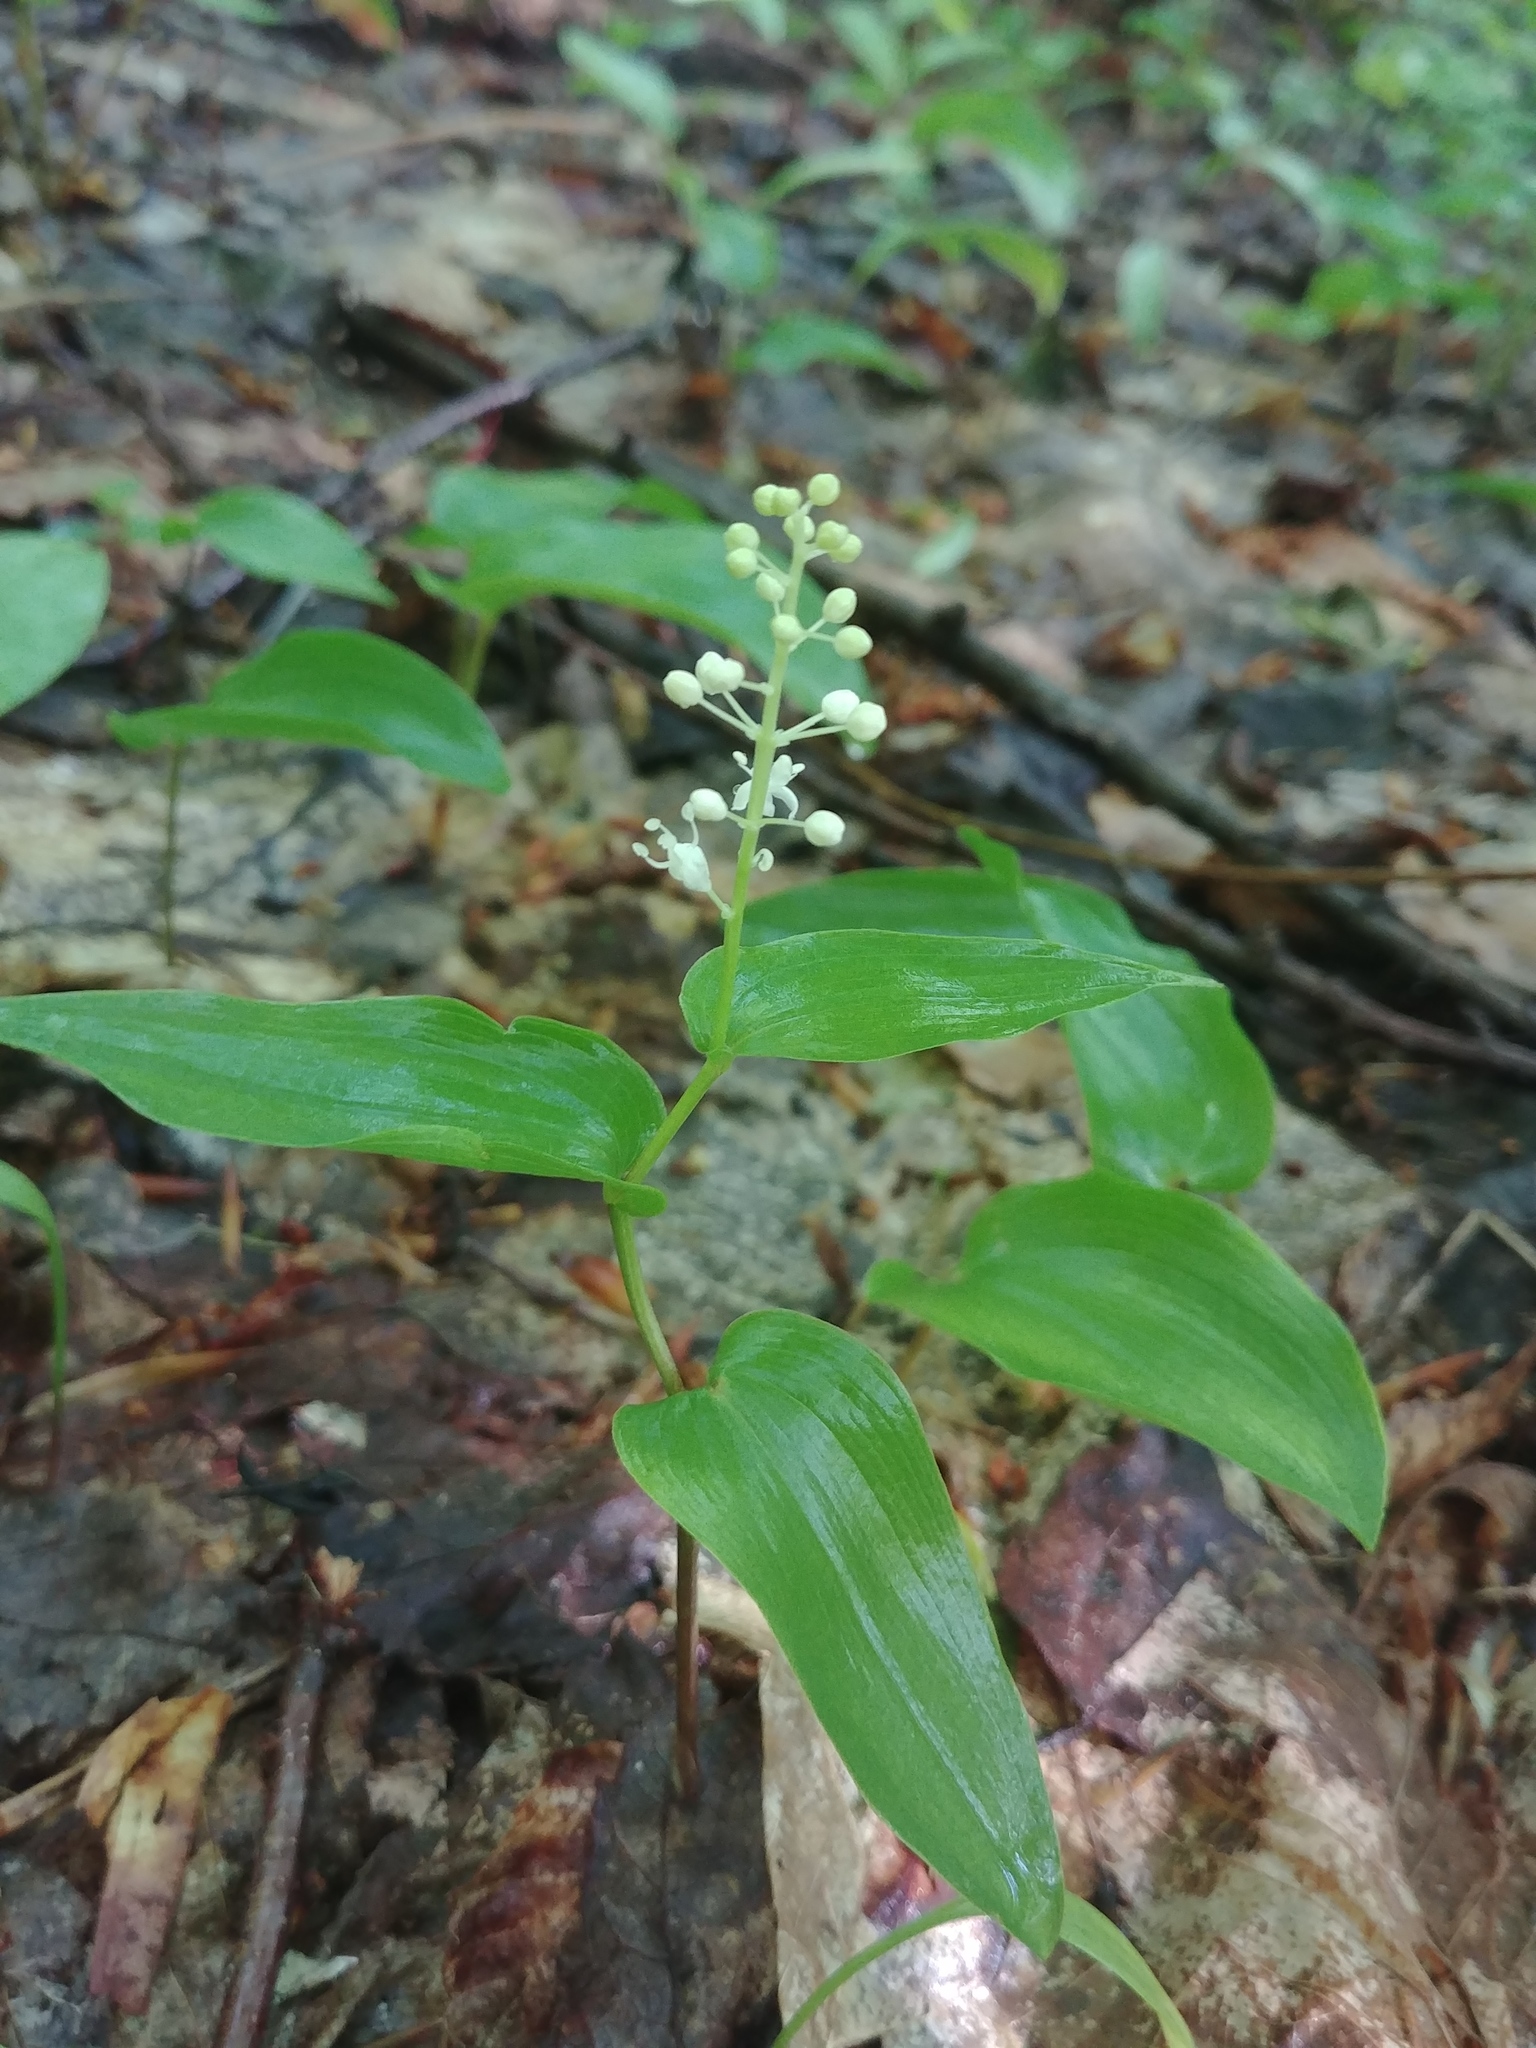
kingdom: Plantae
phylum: Tracheophyta
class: Liliopsida
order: Asparagales
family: Asparagaceae
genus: Maianthemum
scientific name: Maianthemum canadense
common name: False lily-of-the-valley
